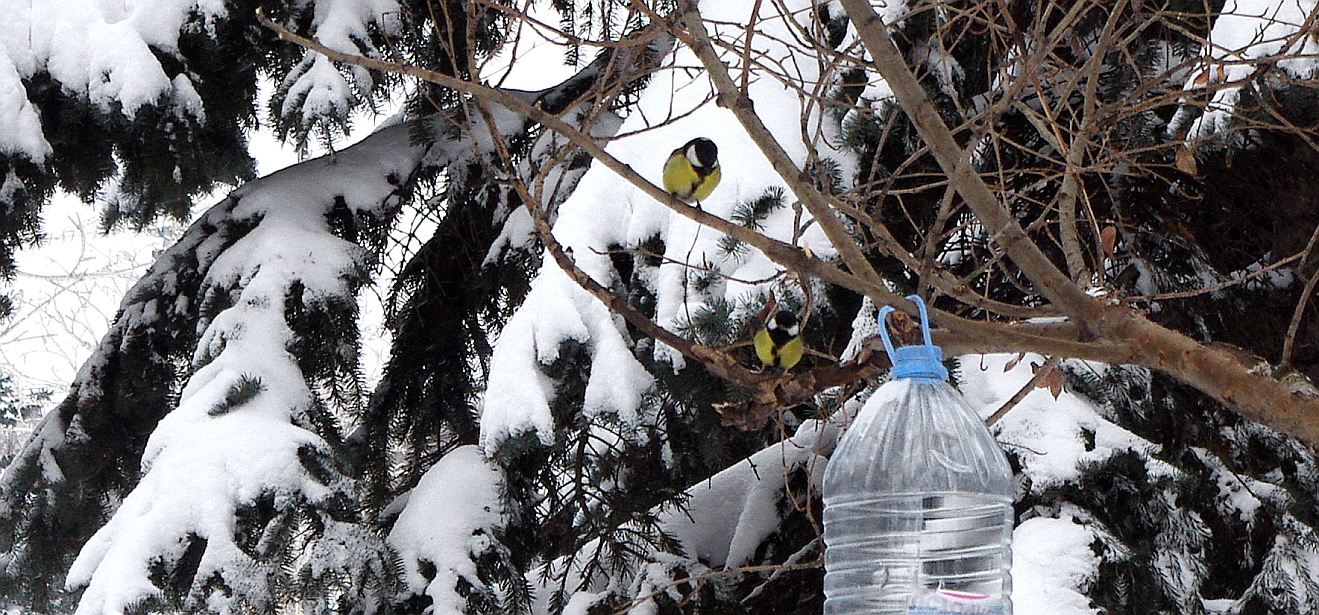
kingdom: Animalia
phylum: Chordata
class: Aves
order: Passeriformes
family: Paridae
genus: Parus
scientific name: Parus major
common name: Great tit
